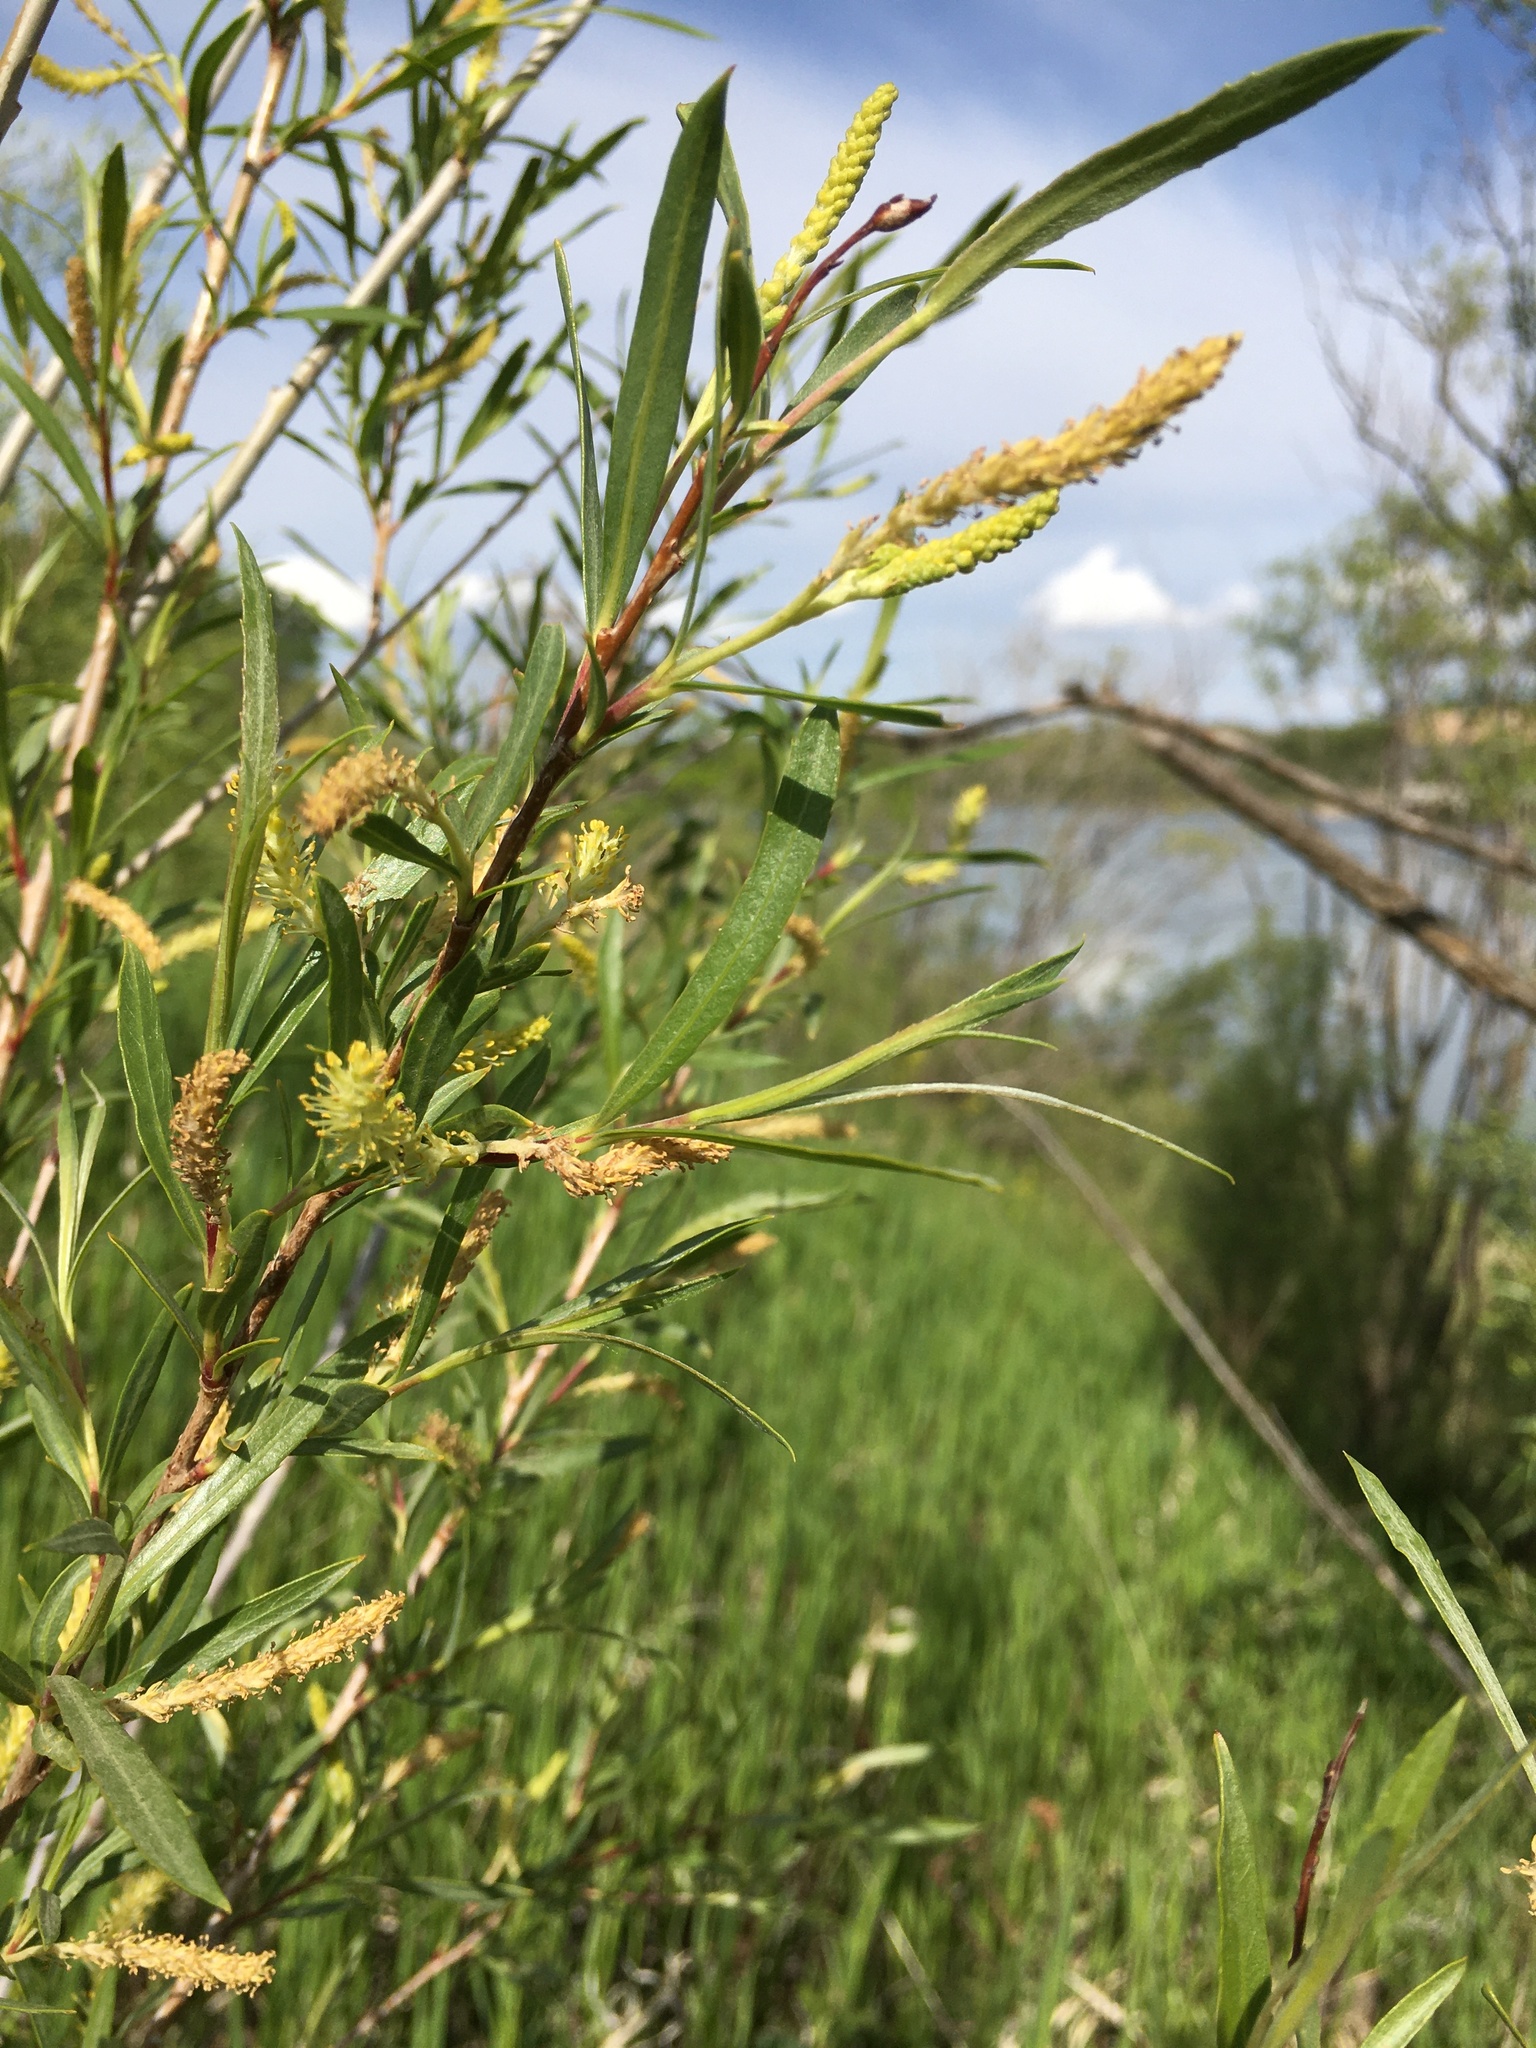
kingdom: Plantae
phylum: Tracheophyta
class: Magnoliopsida
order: Malpighiales
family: Salicaceae
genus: Salix
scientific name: Salix interior
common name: Sandbar willow
